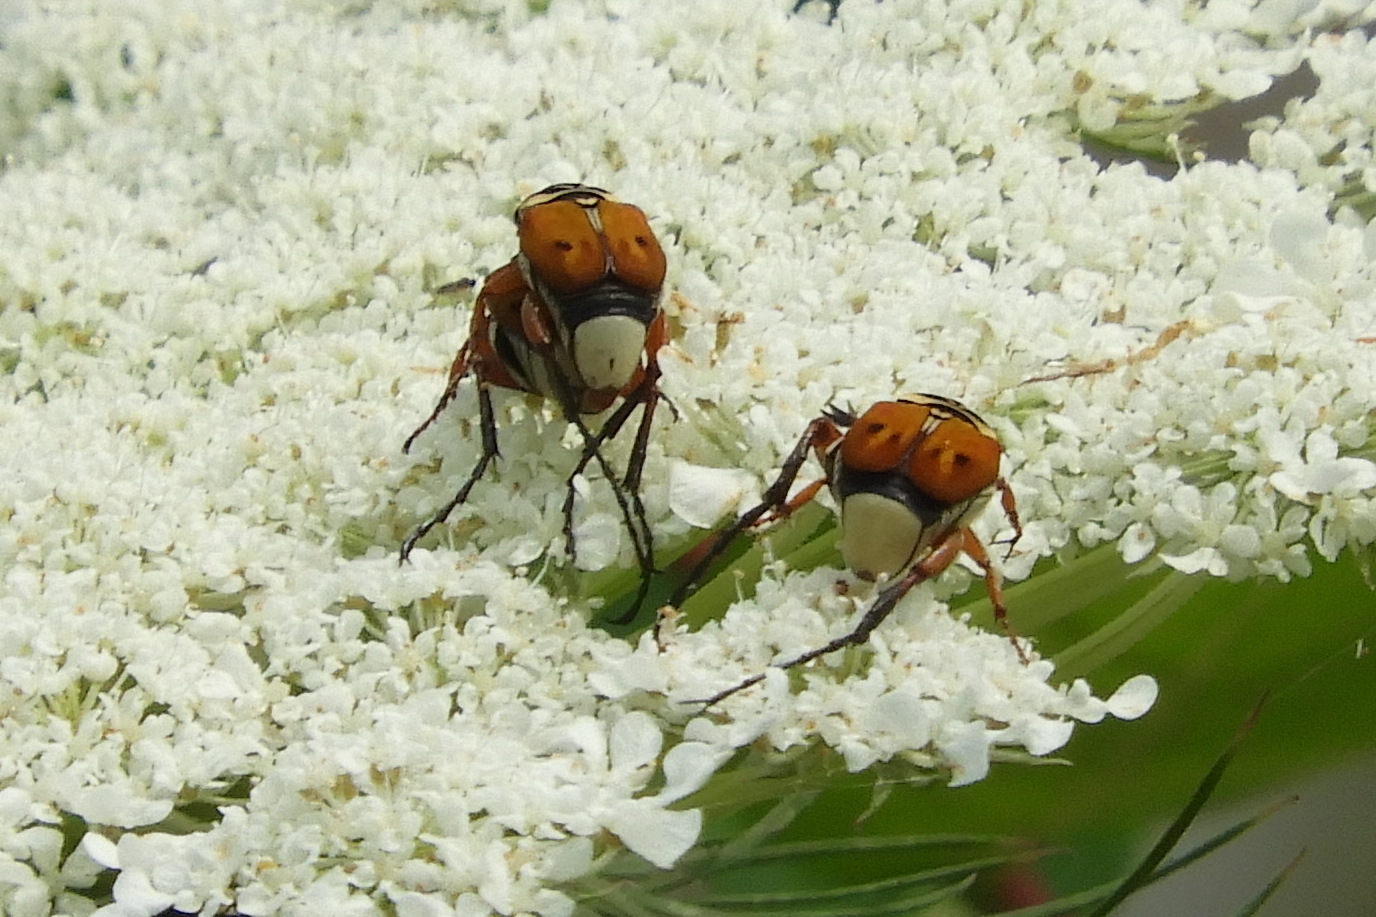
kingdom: Animalia
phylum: Arthropoda
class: Insecta
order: Coleoptera
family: Scarabaeidae
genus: Trigonopeltastes
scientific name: Trigonopeltastes delta
